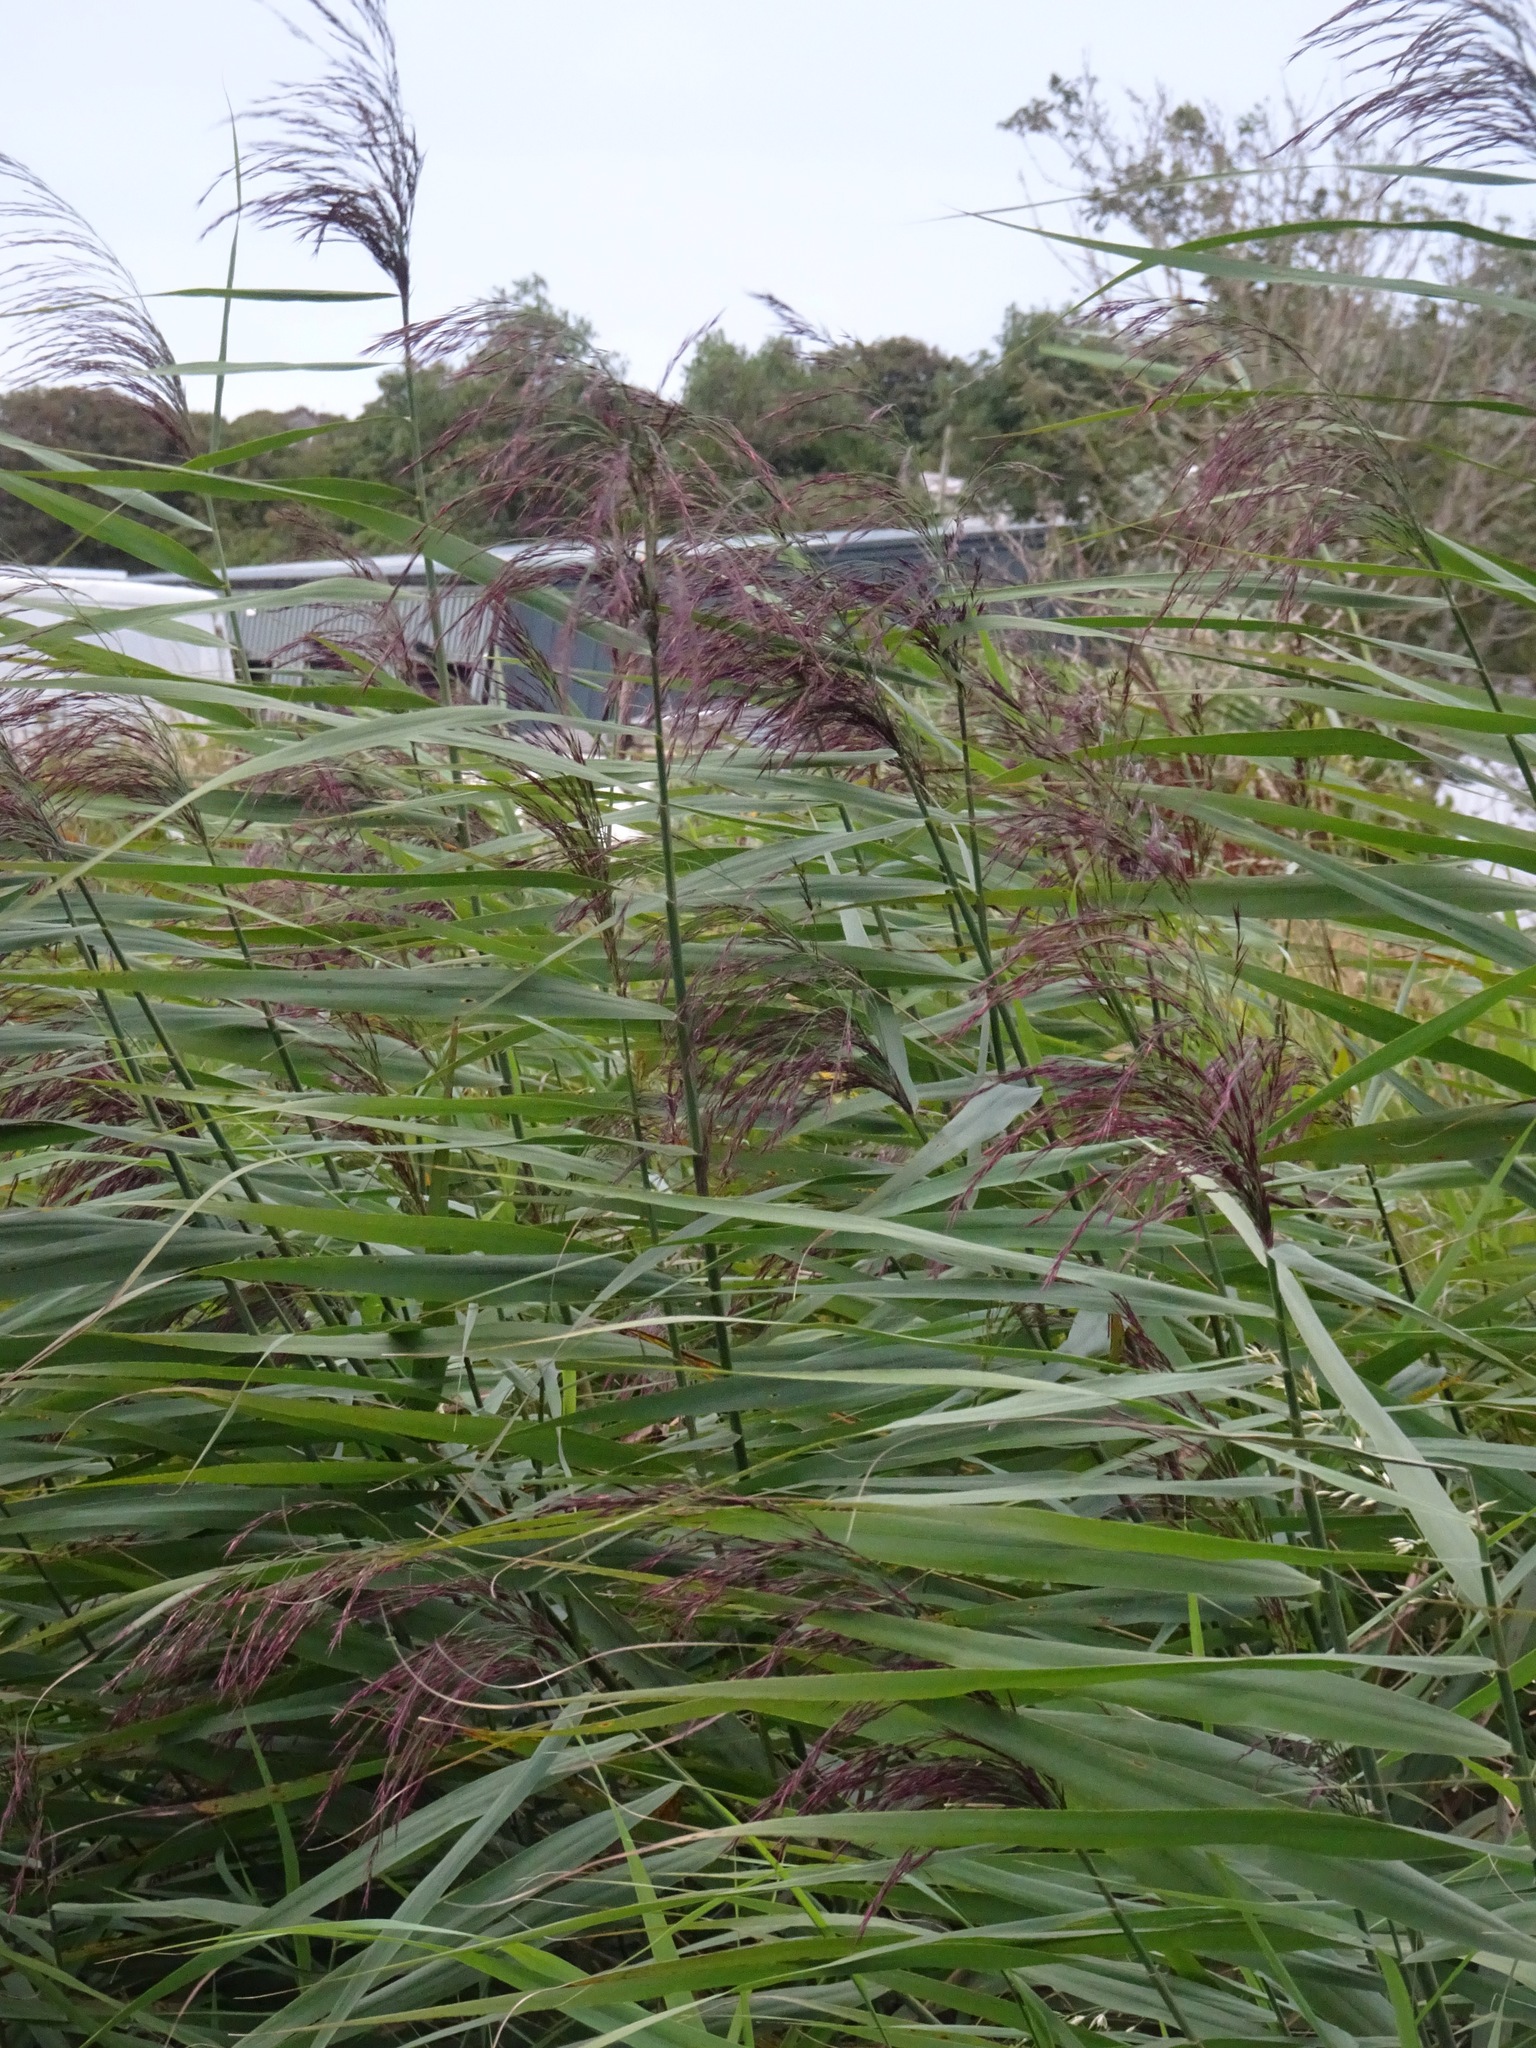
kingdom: Plantae
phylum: Tracheophyta
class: Liliopsida
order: Poales
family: Poaceae
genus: Phragmites
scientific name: Phragmites australis
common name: Common reed
